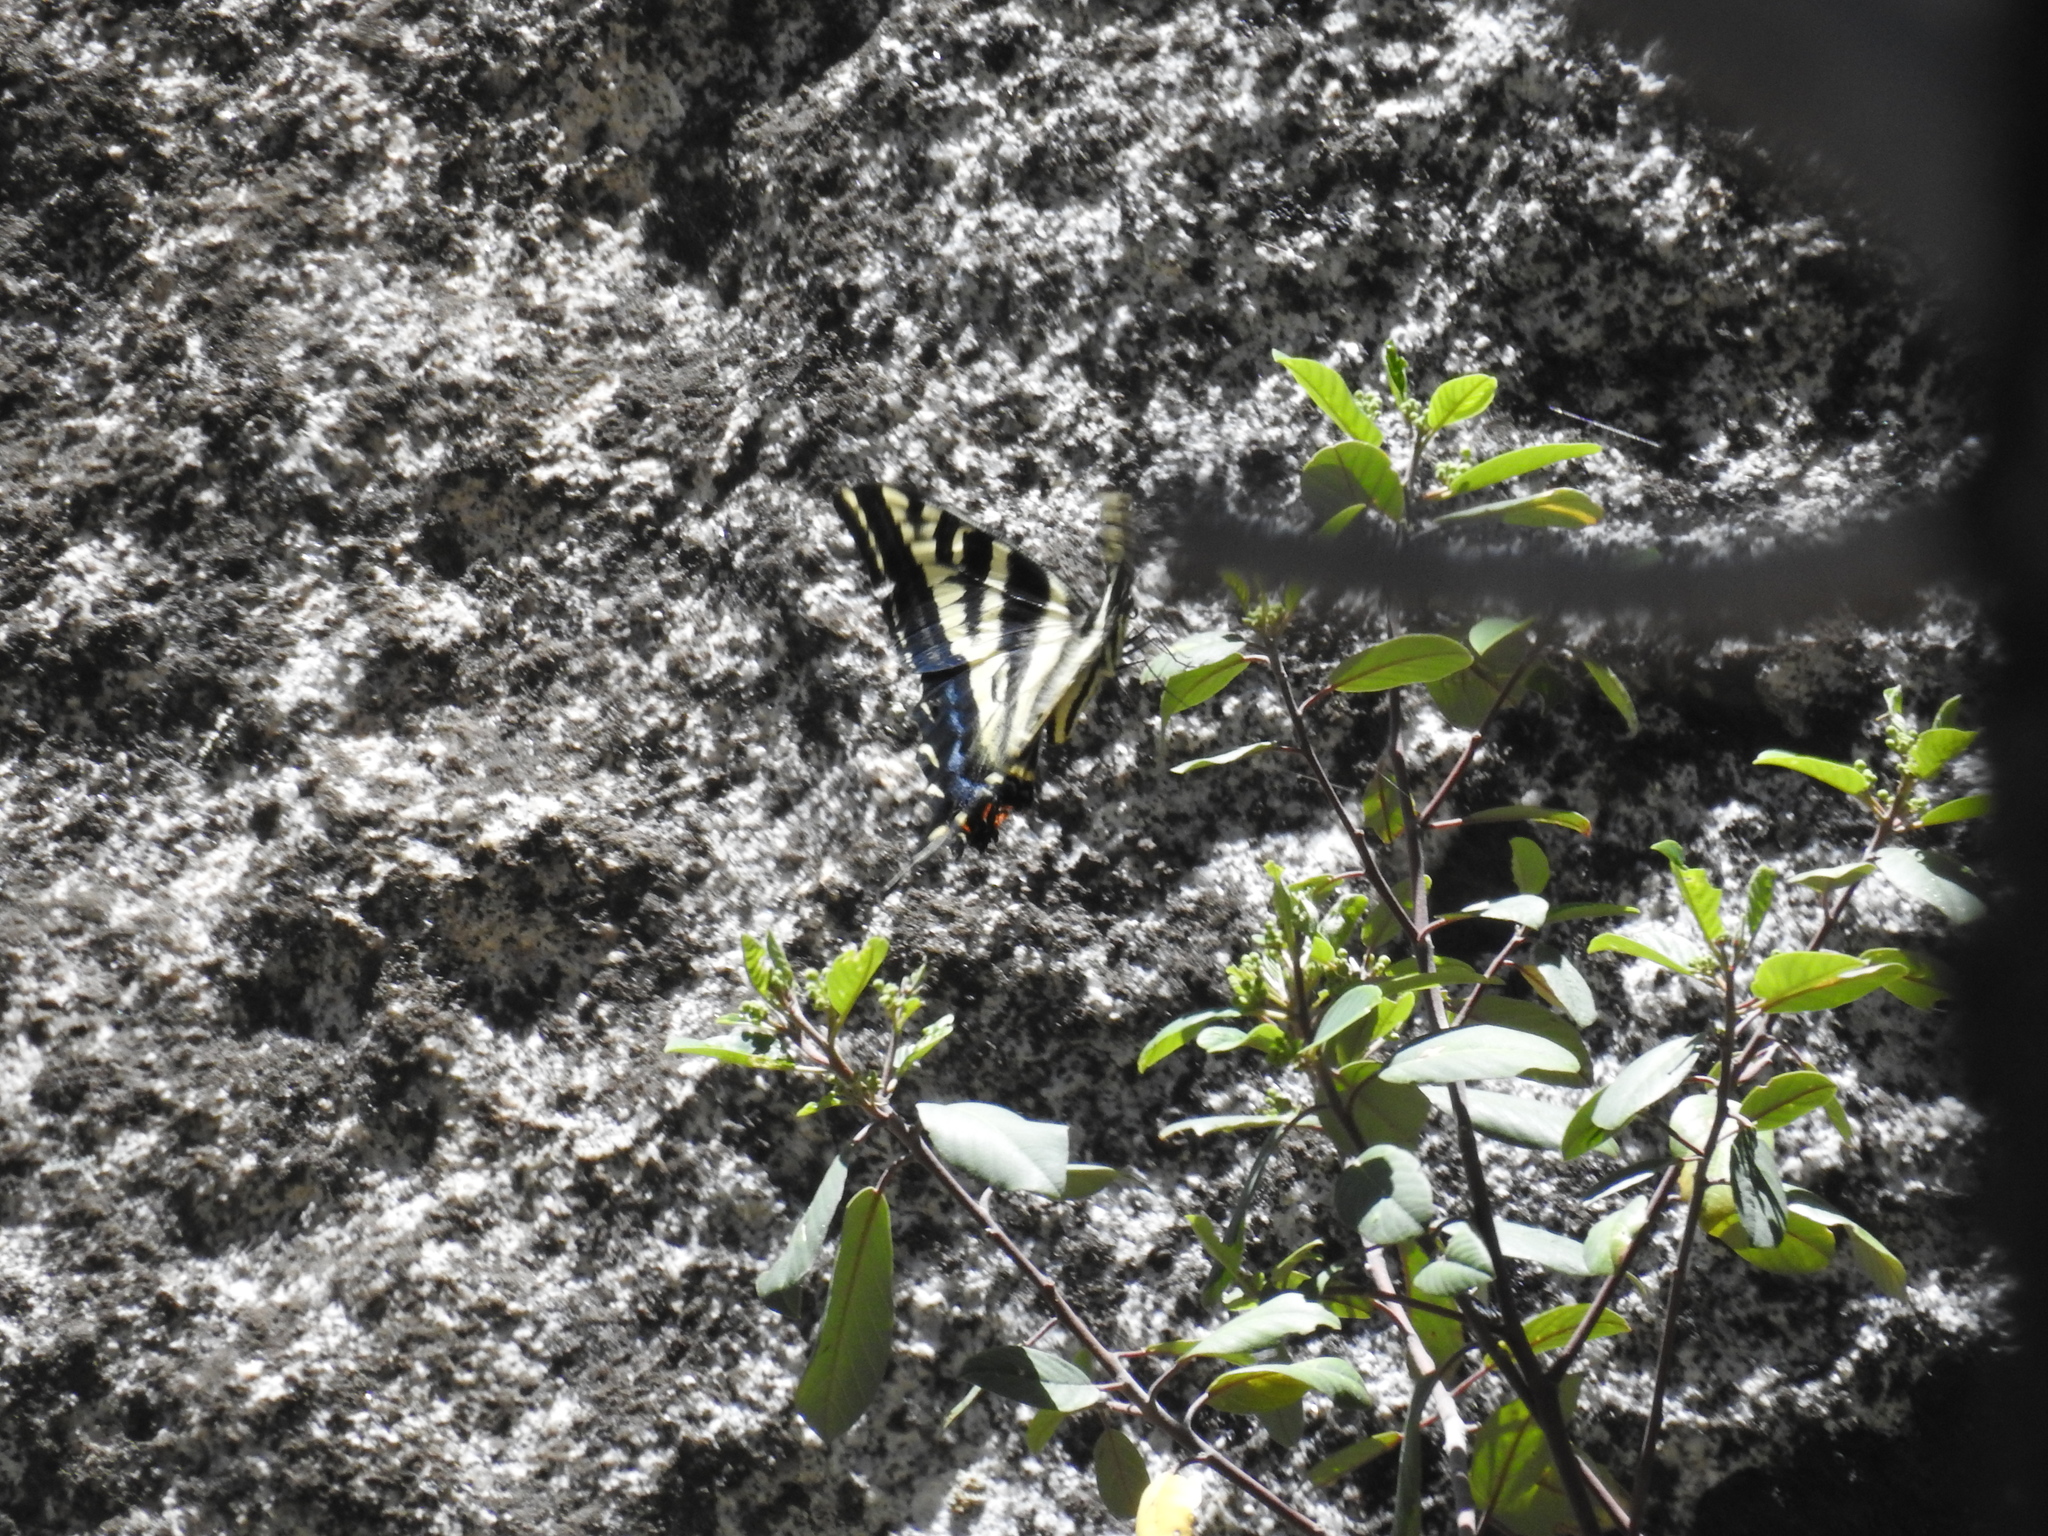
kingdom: Animalia
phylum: Arthropoda
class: Insecta
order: Lepidoptera
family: Papilionidae
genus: Papilio
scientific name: Papilio eurymedon
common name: Pale tiger swallowtail
